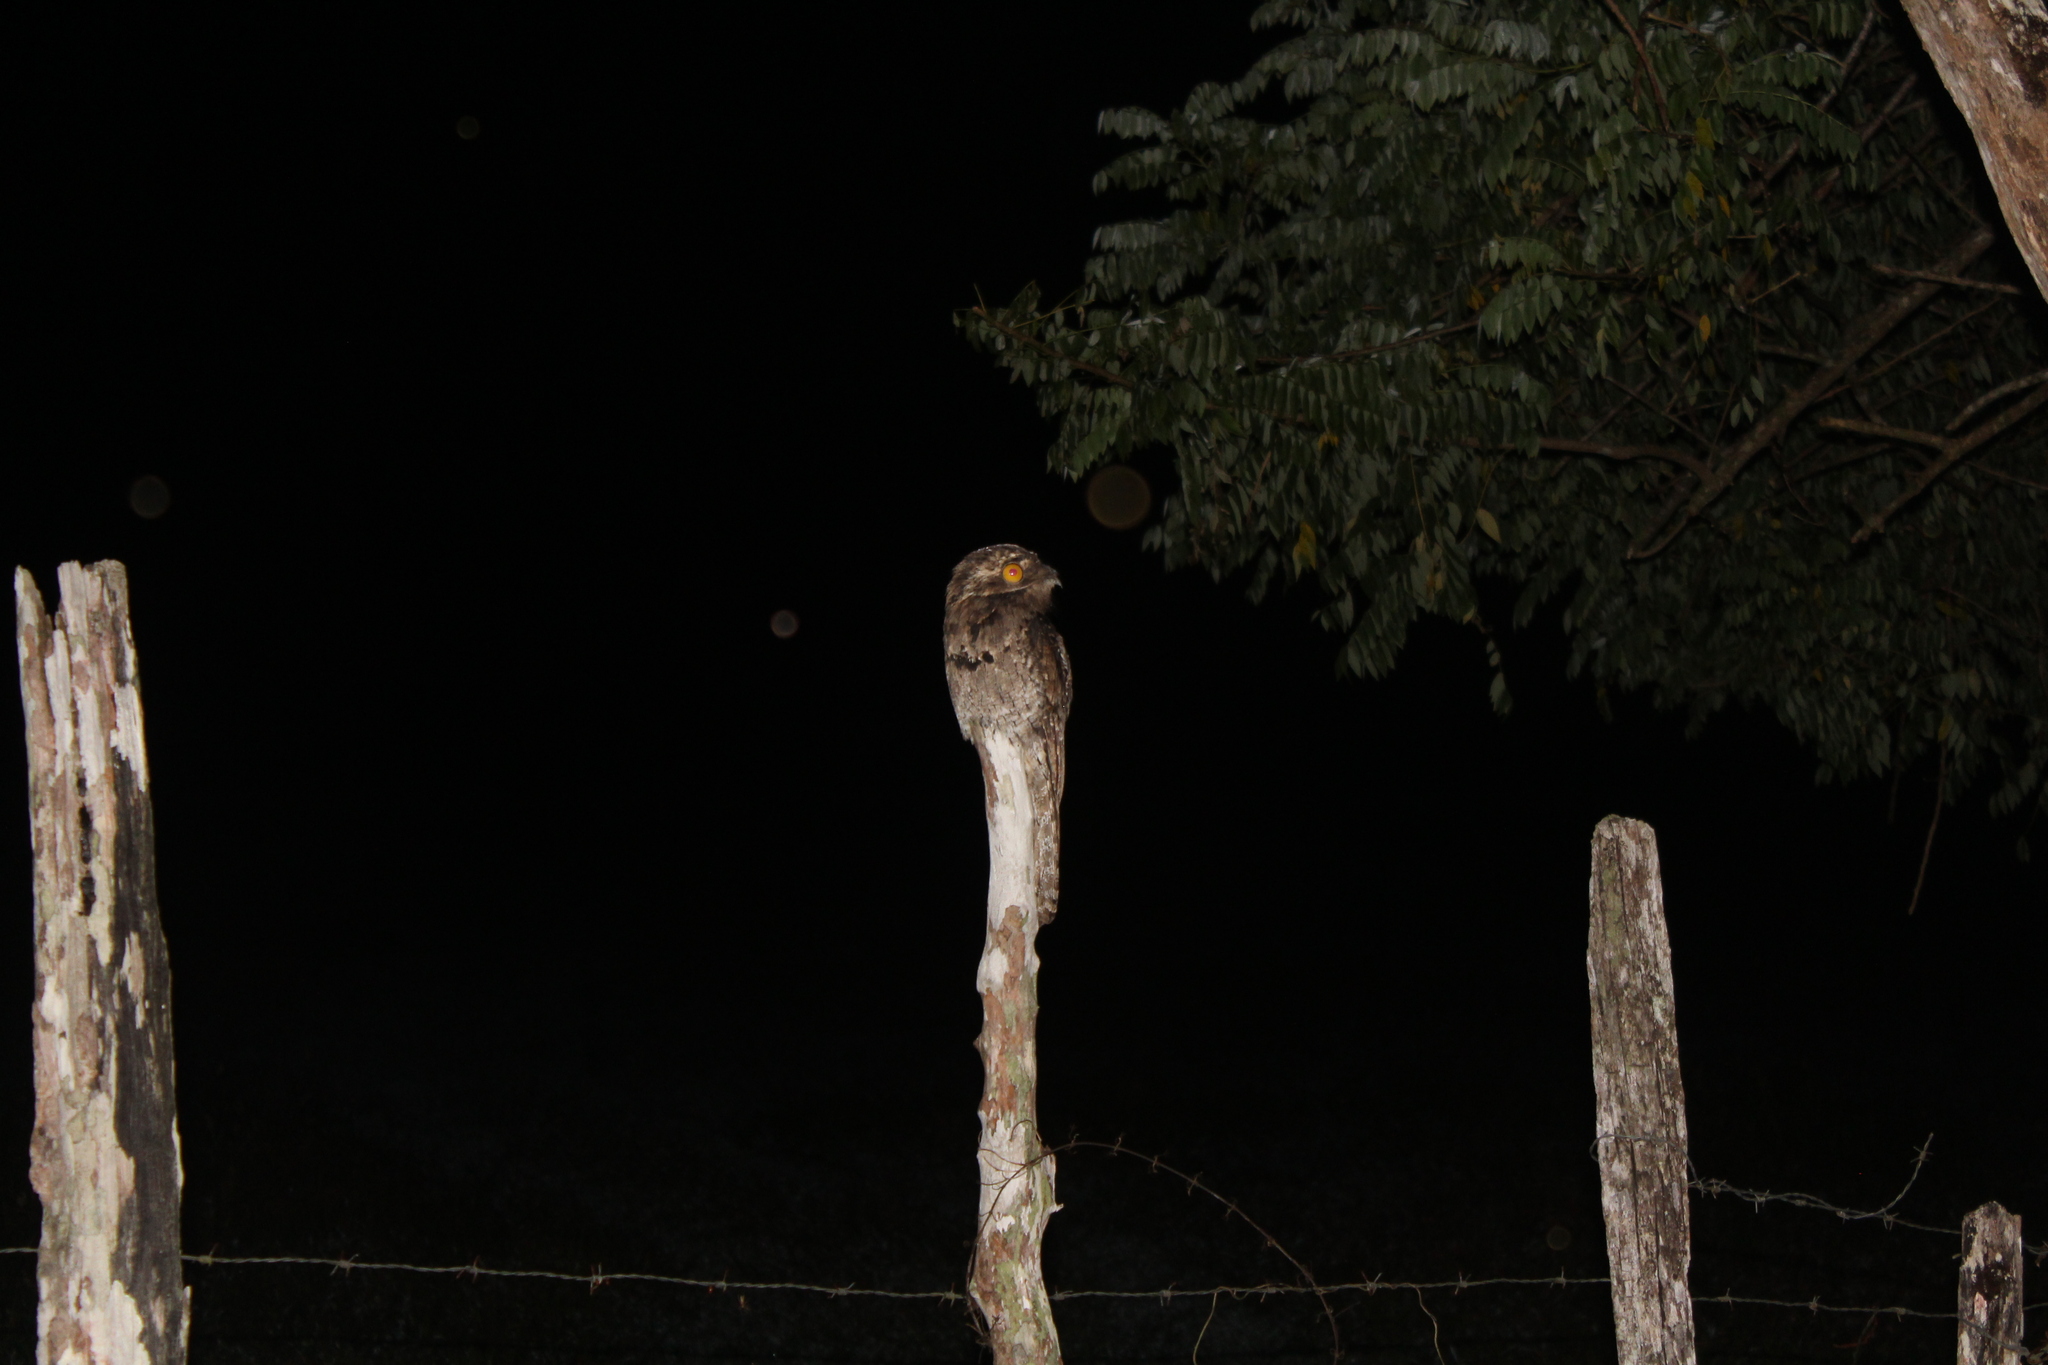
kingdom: Animalia
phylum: Chordata
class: Aves
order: Nyctibiiformes
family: Nyctibiidae
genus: Nyctibius
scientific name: Nyctibius griseus
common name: Common potoo
